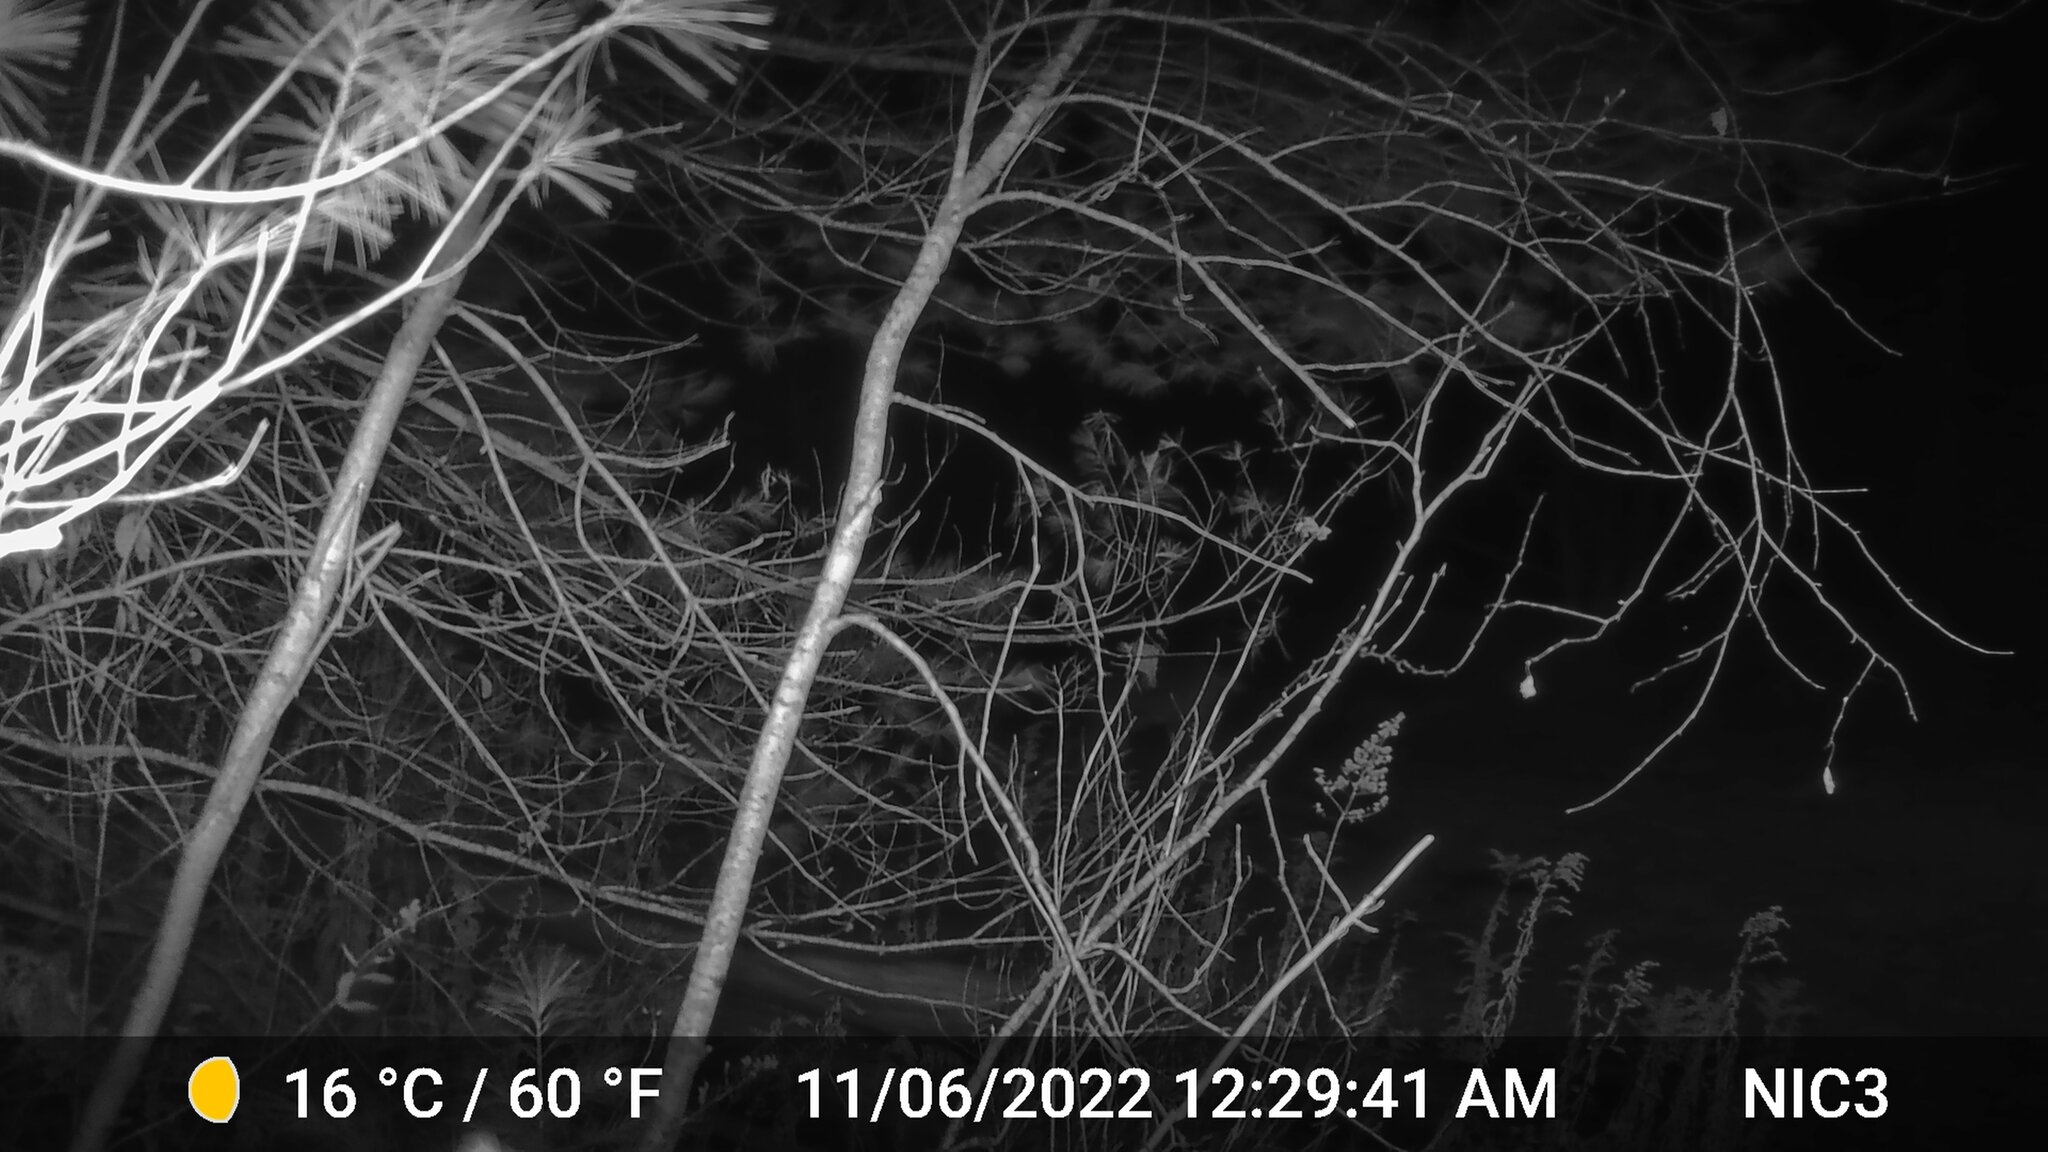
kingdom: Animalia
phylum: Chordata
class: Mammalia
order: Artiodactyla
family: Cervidae
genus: Odocoileus
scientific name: Odocoileus virginianus
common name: White-tailed deer
